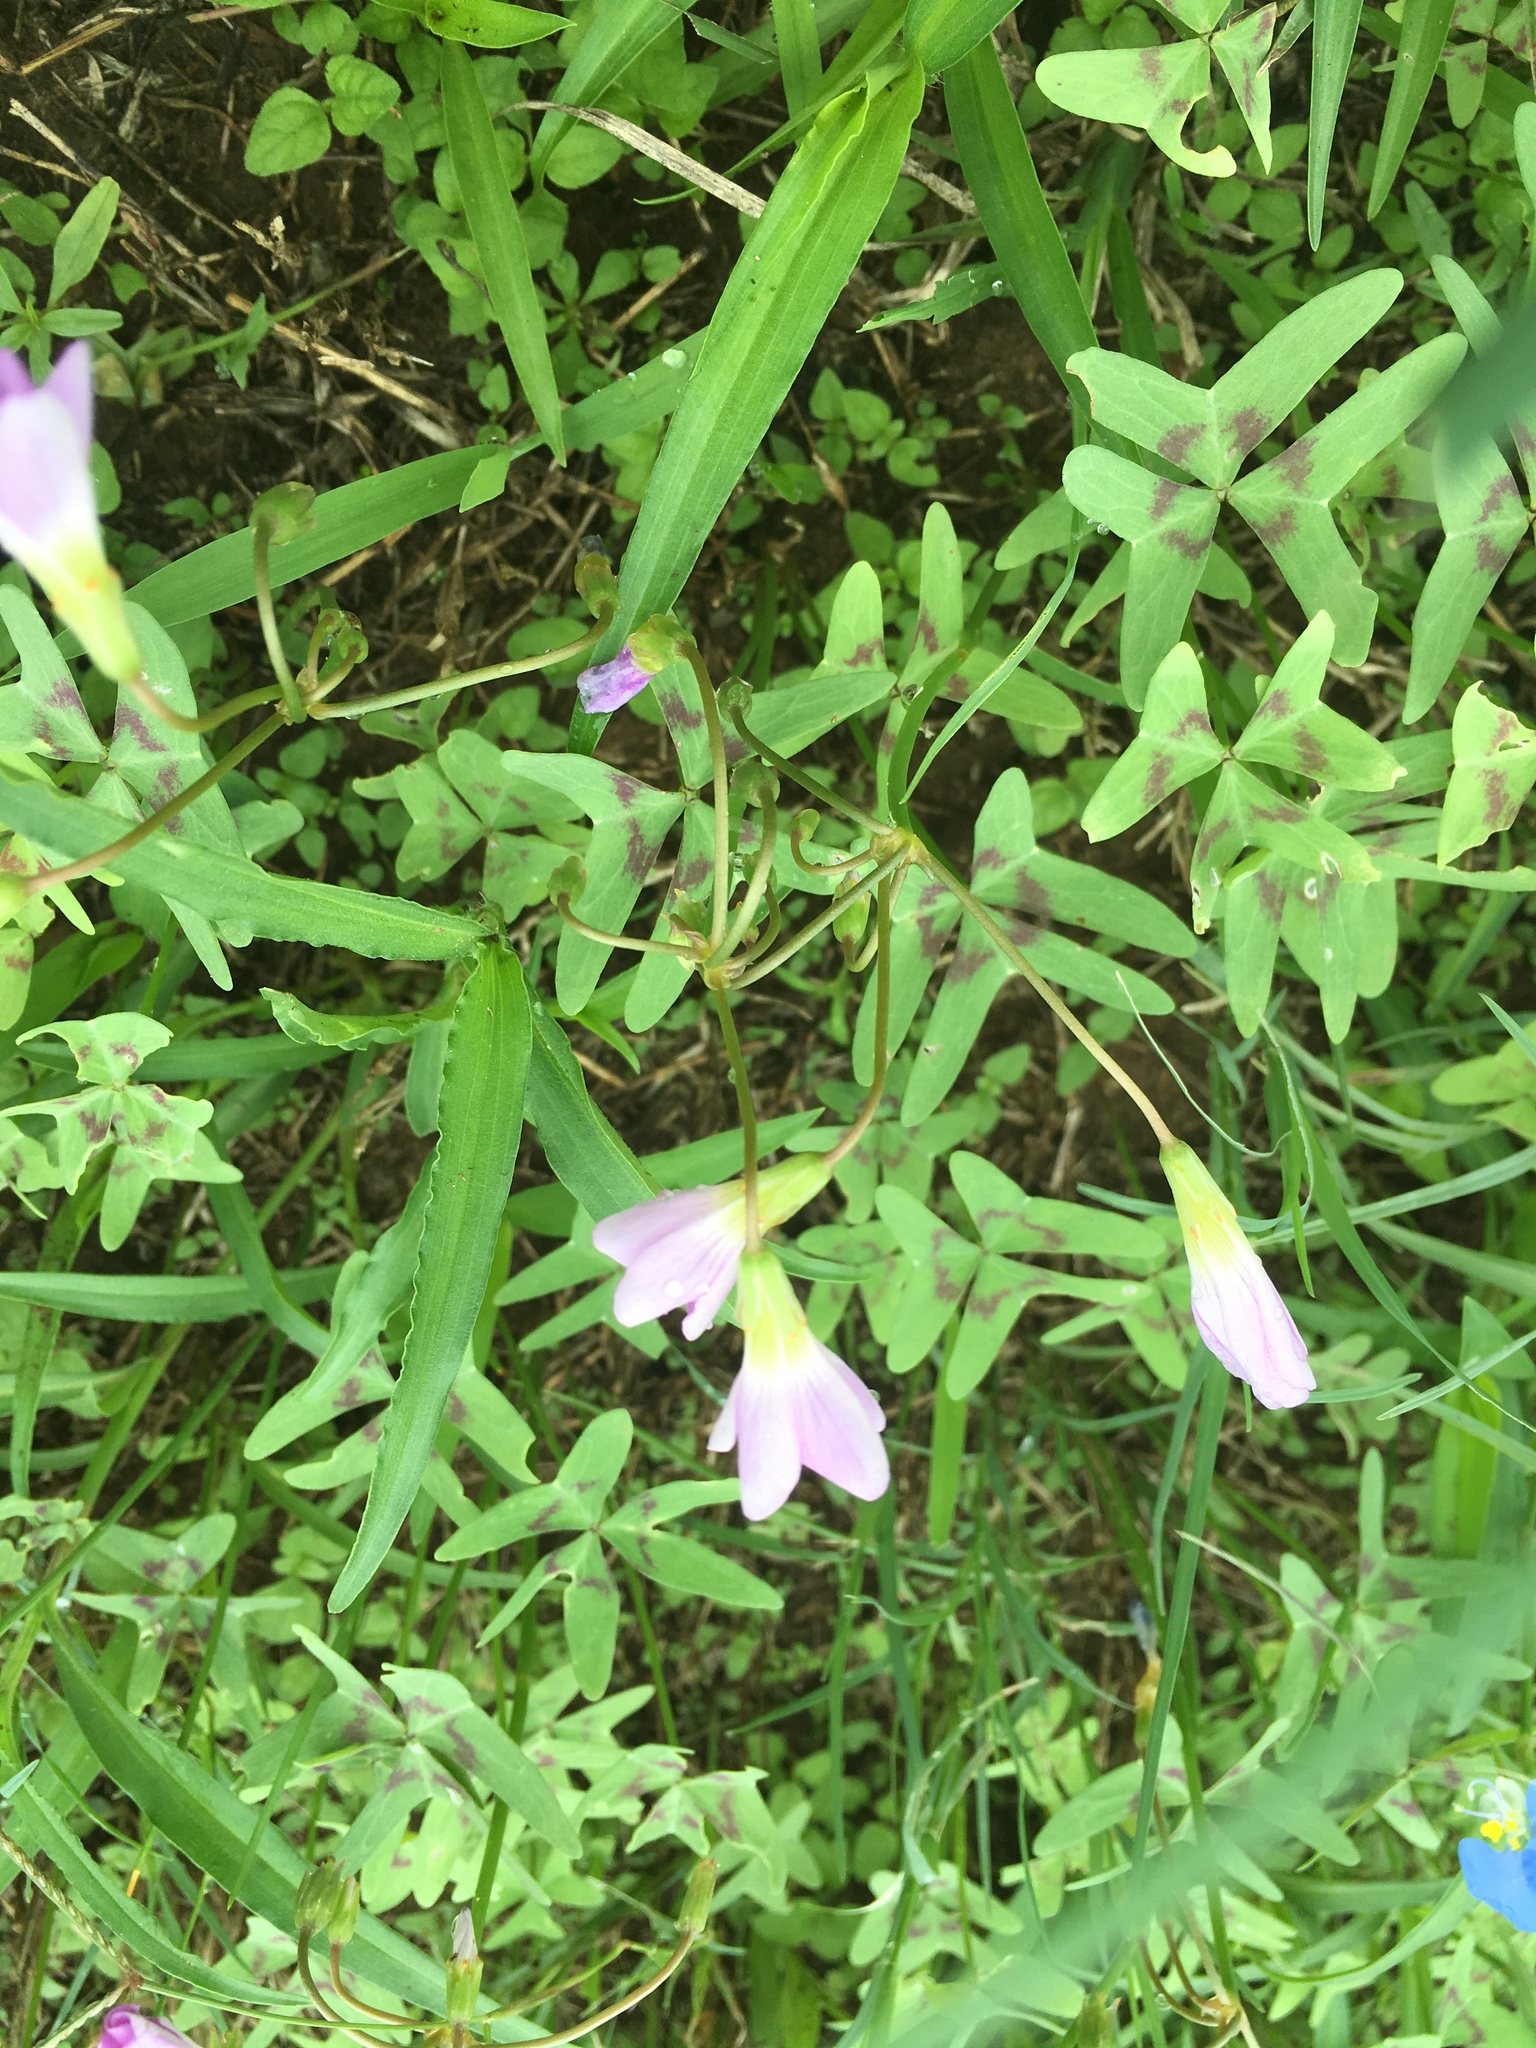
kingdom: Plantae
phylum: Tracheophyta
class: Magnoliopsida
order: Oxalidales
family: Oxalidaceae
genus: Oxalis
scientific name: Oxalis drummondii
